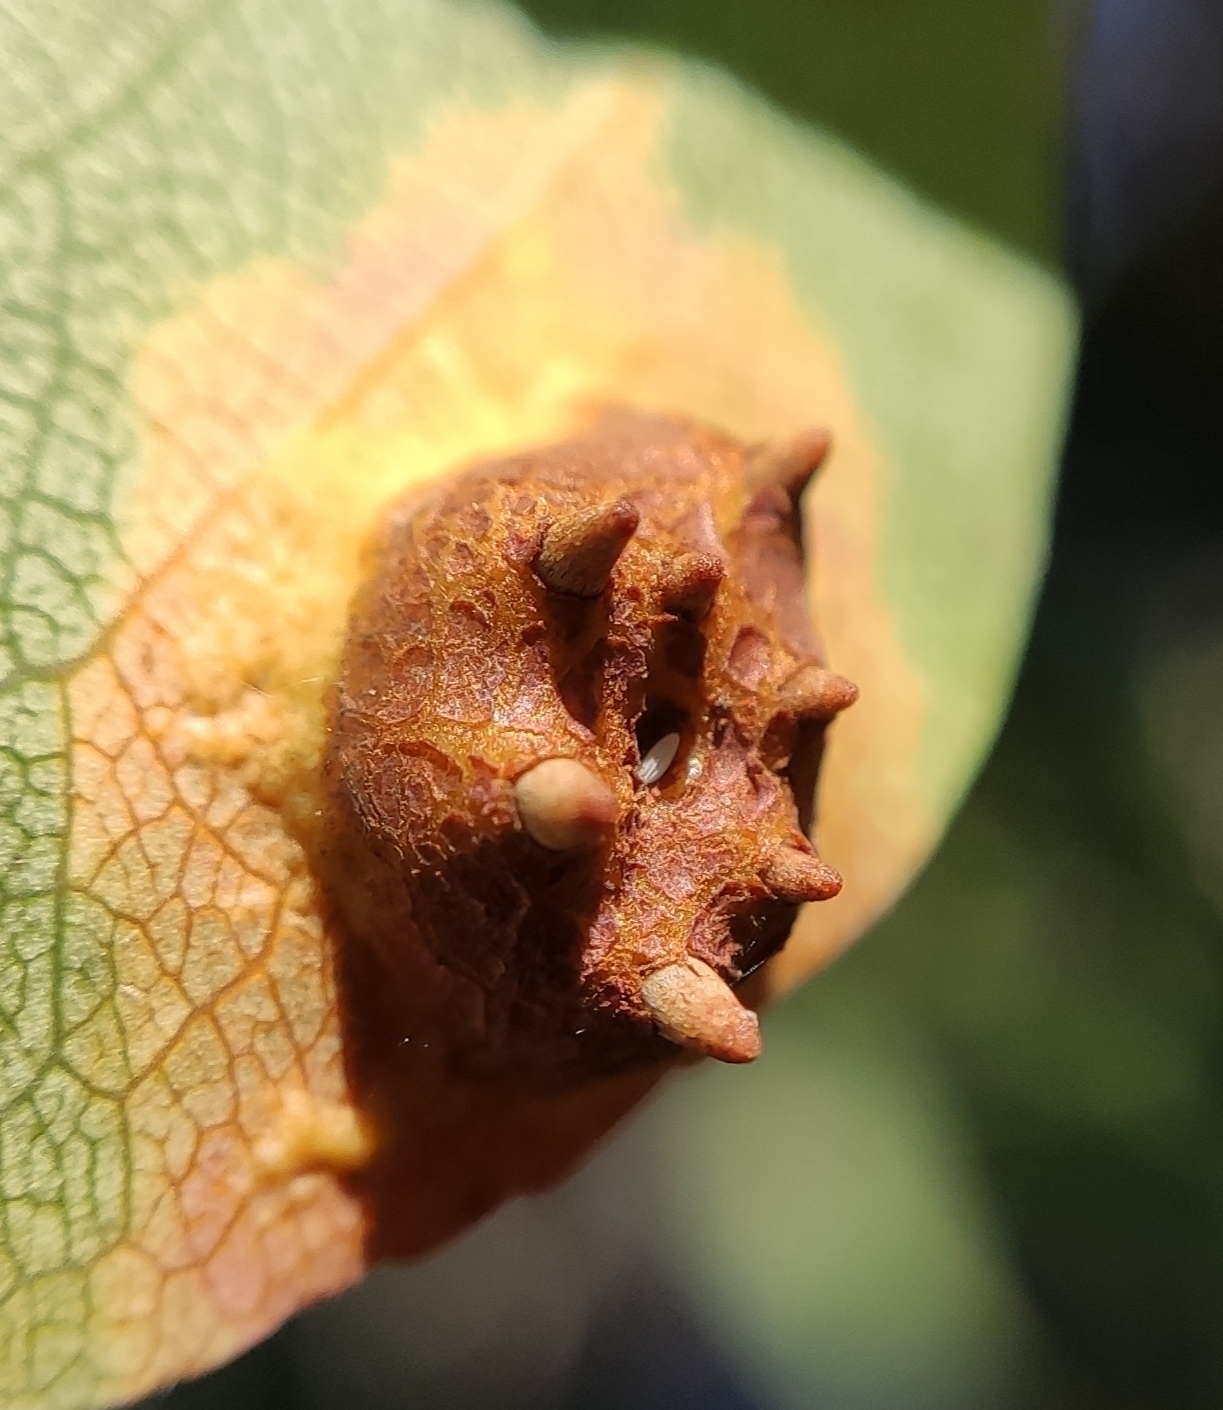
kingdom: Fungi
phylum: Basidiomycota
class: Pucciniomycetes
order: Pucciniales
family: Gymnosporangiaceae
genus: Gymnosporangium
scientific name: Gymnosporangium sabinae
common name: Pear trellis rust fungus
